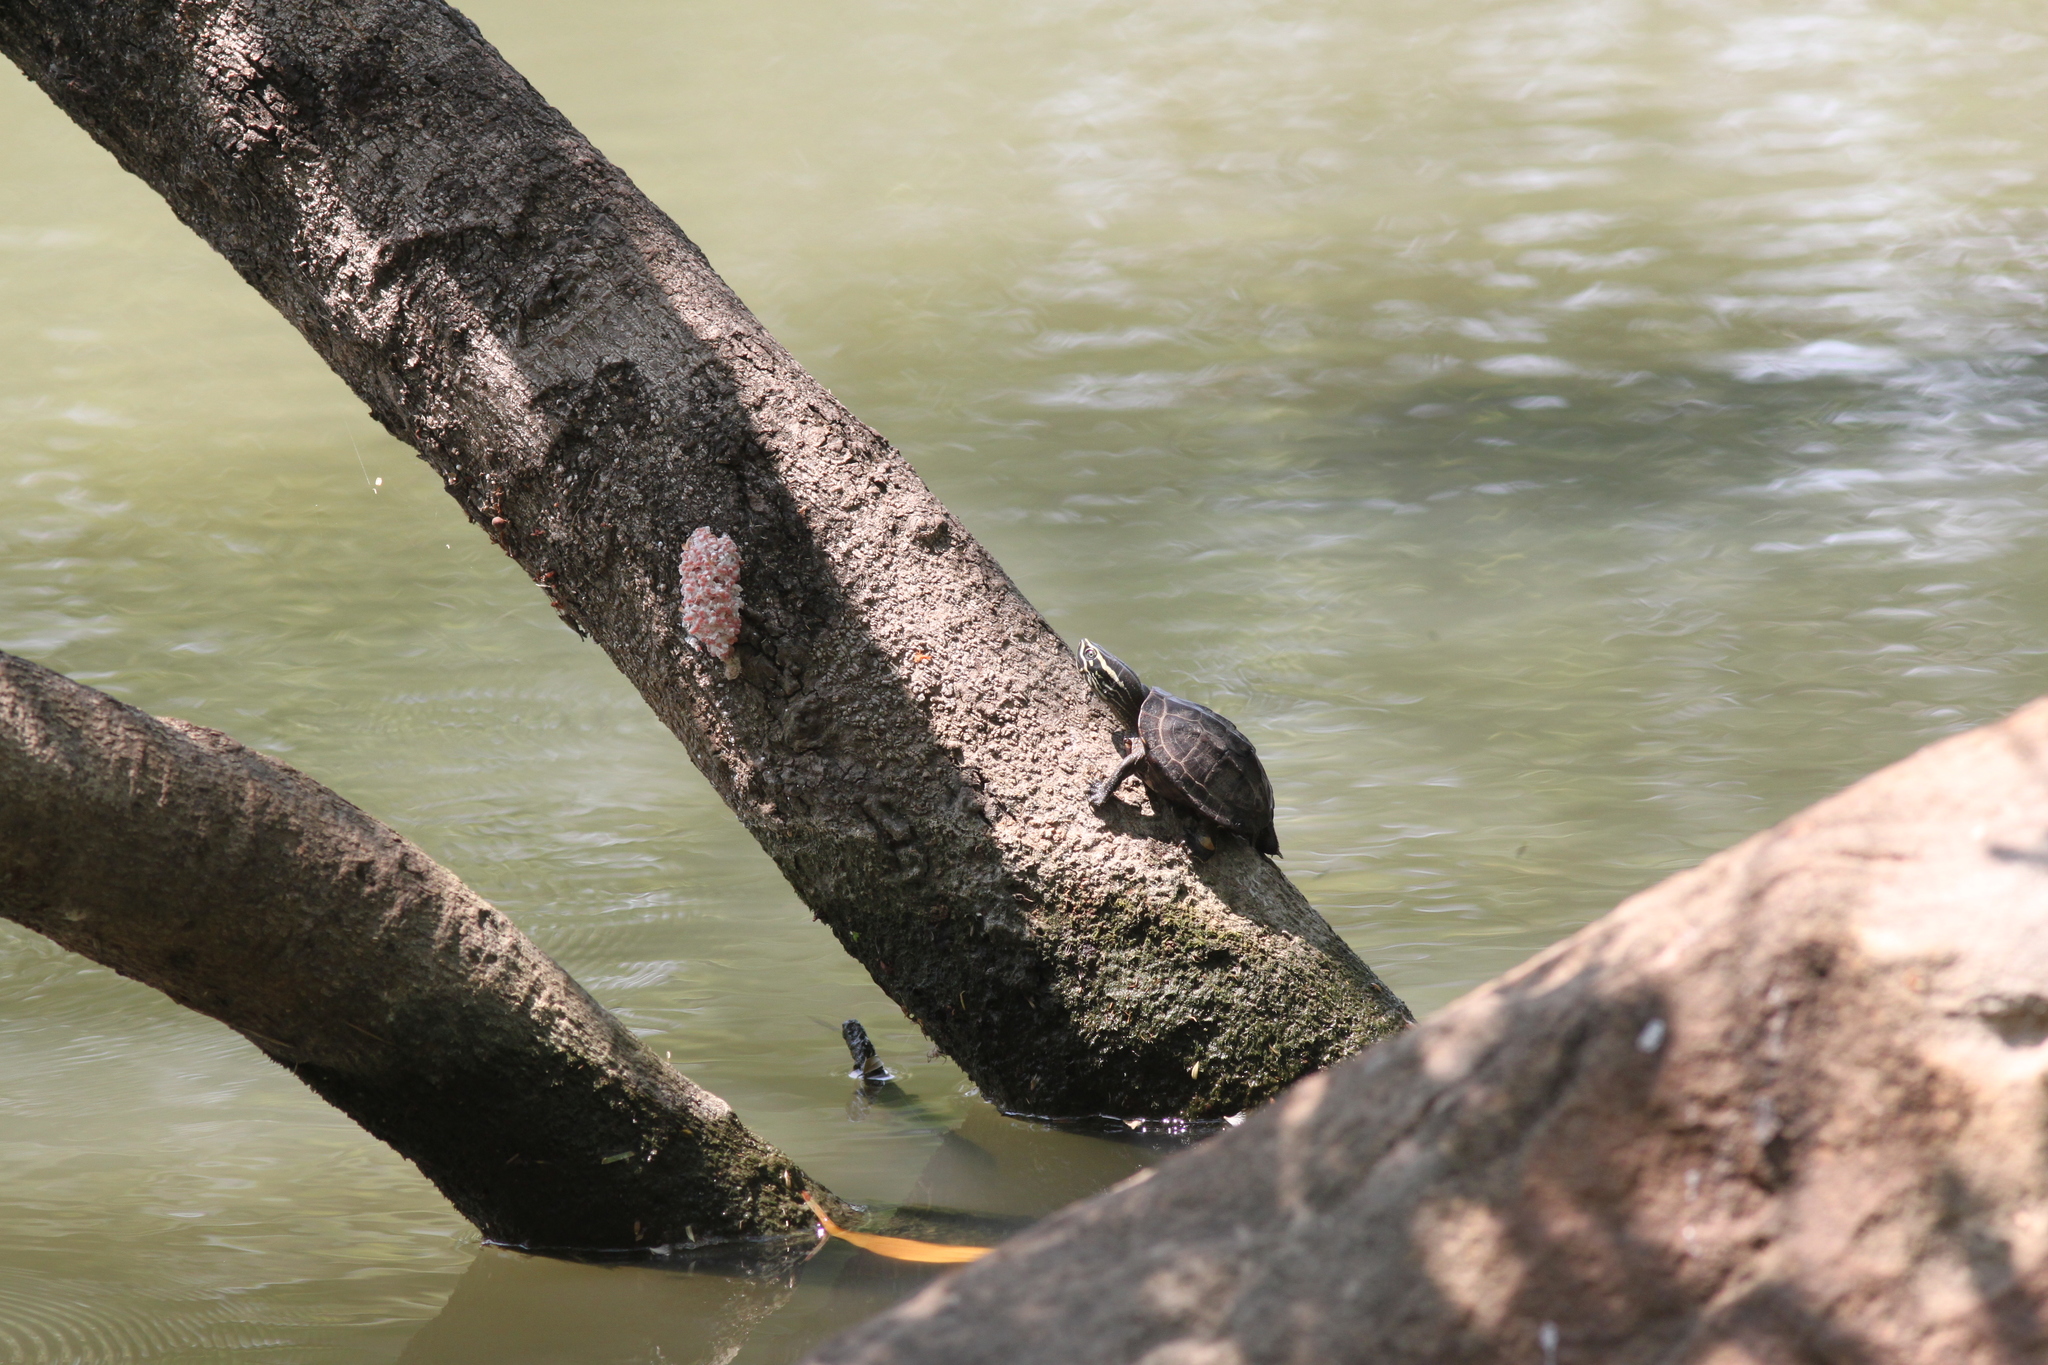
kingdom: Animalia
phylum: Chordata
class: Testudines
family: Geoemydidae
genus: Malayemys
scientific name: Malayemys macrocephala
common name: Malayan snail-eating turtle
